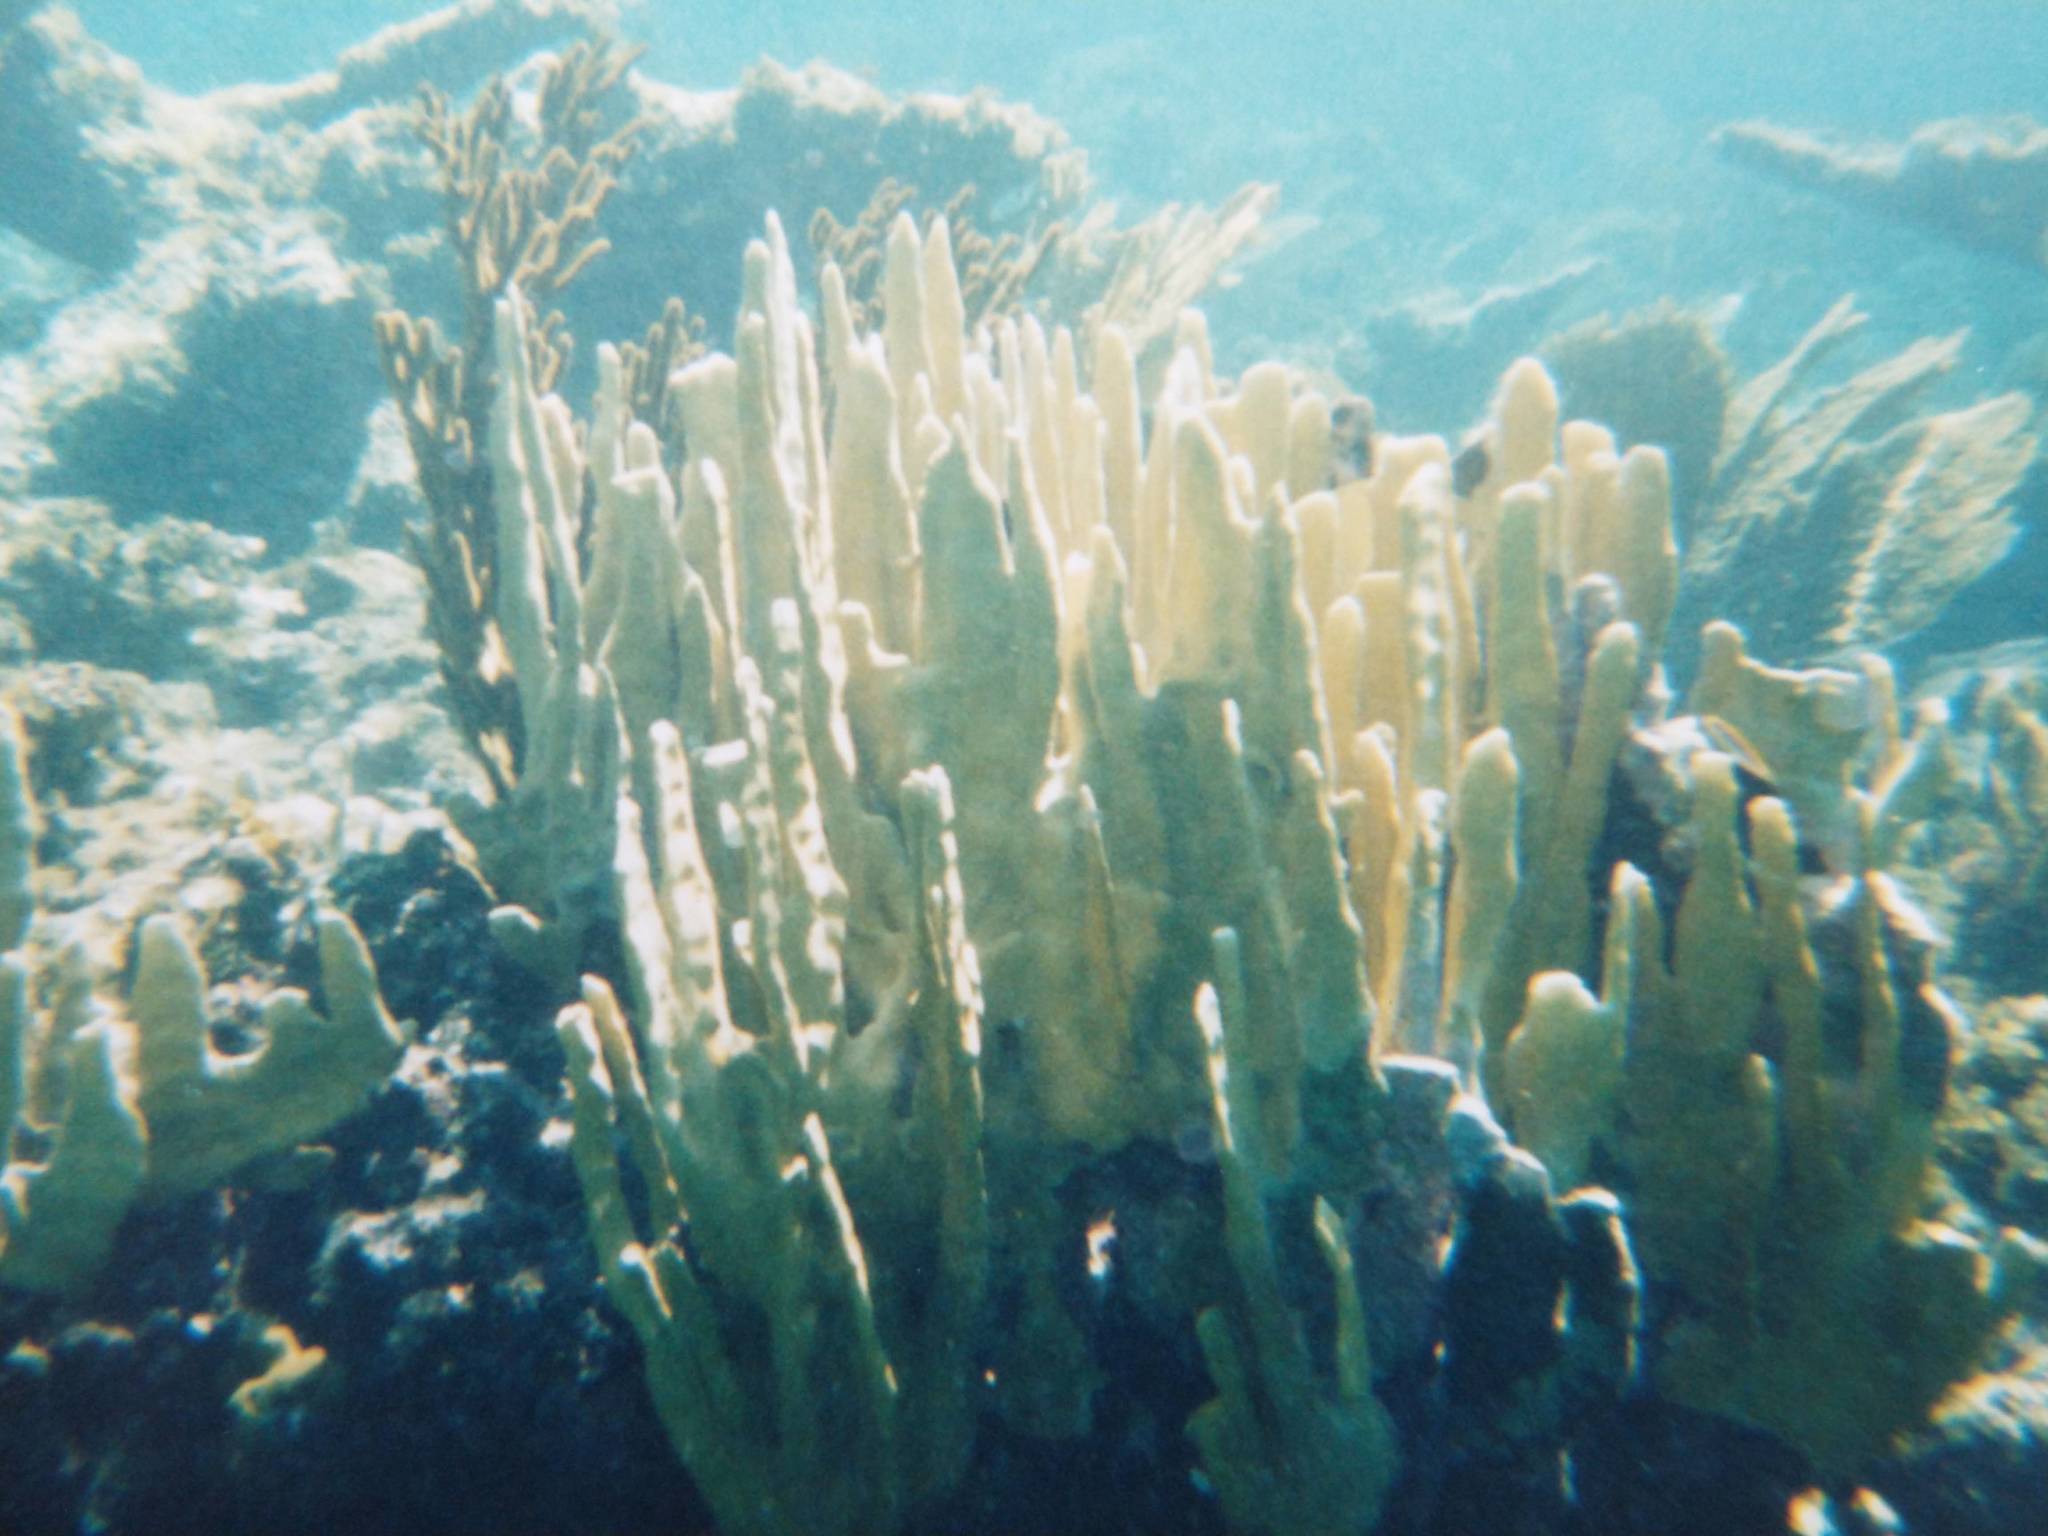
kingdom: Animalia
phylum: Cnidaria
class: Hydrozoa
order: Anthoathecata
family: Milleporidae
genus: Millepora
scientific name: Millepora complanata
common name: Bladed fire coral
